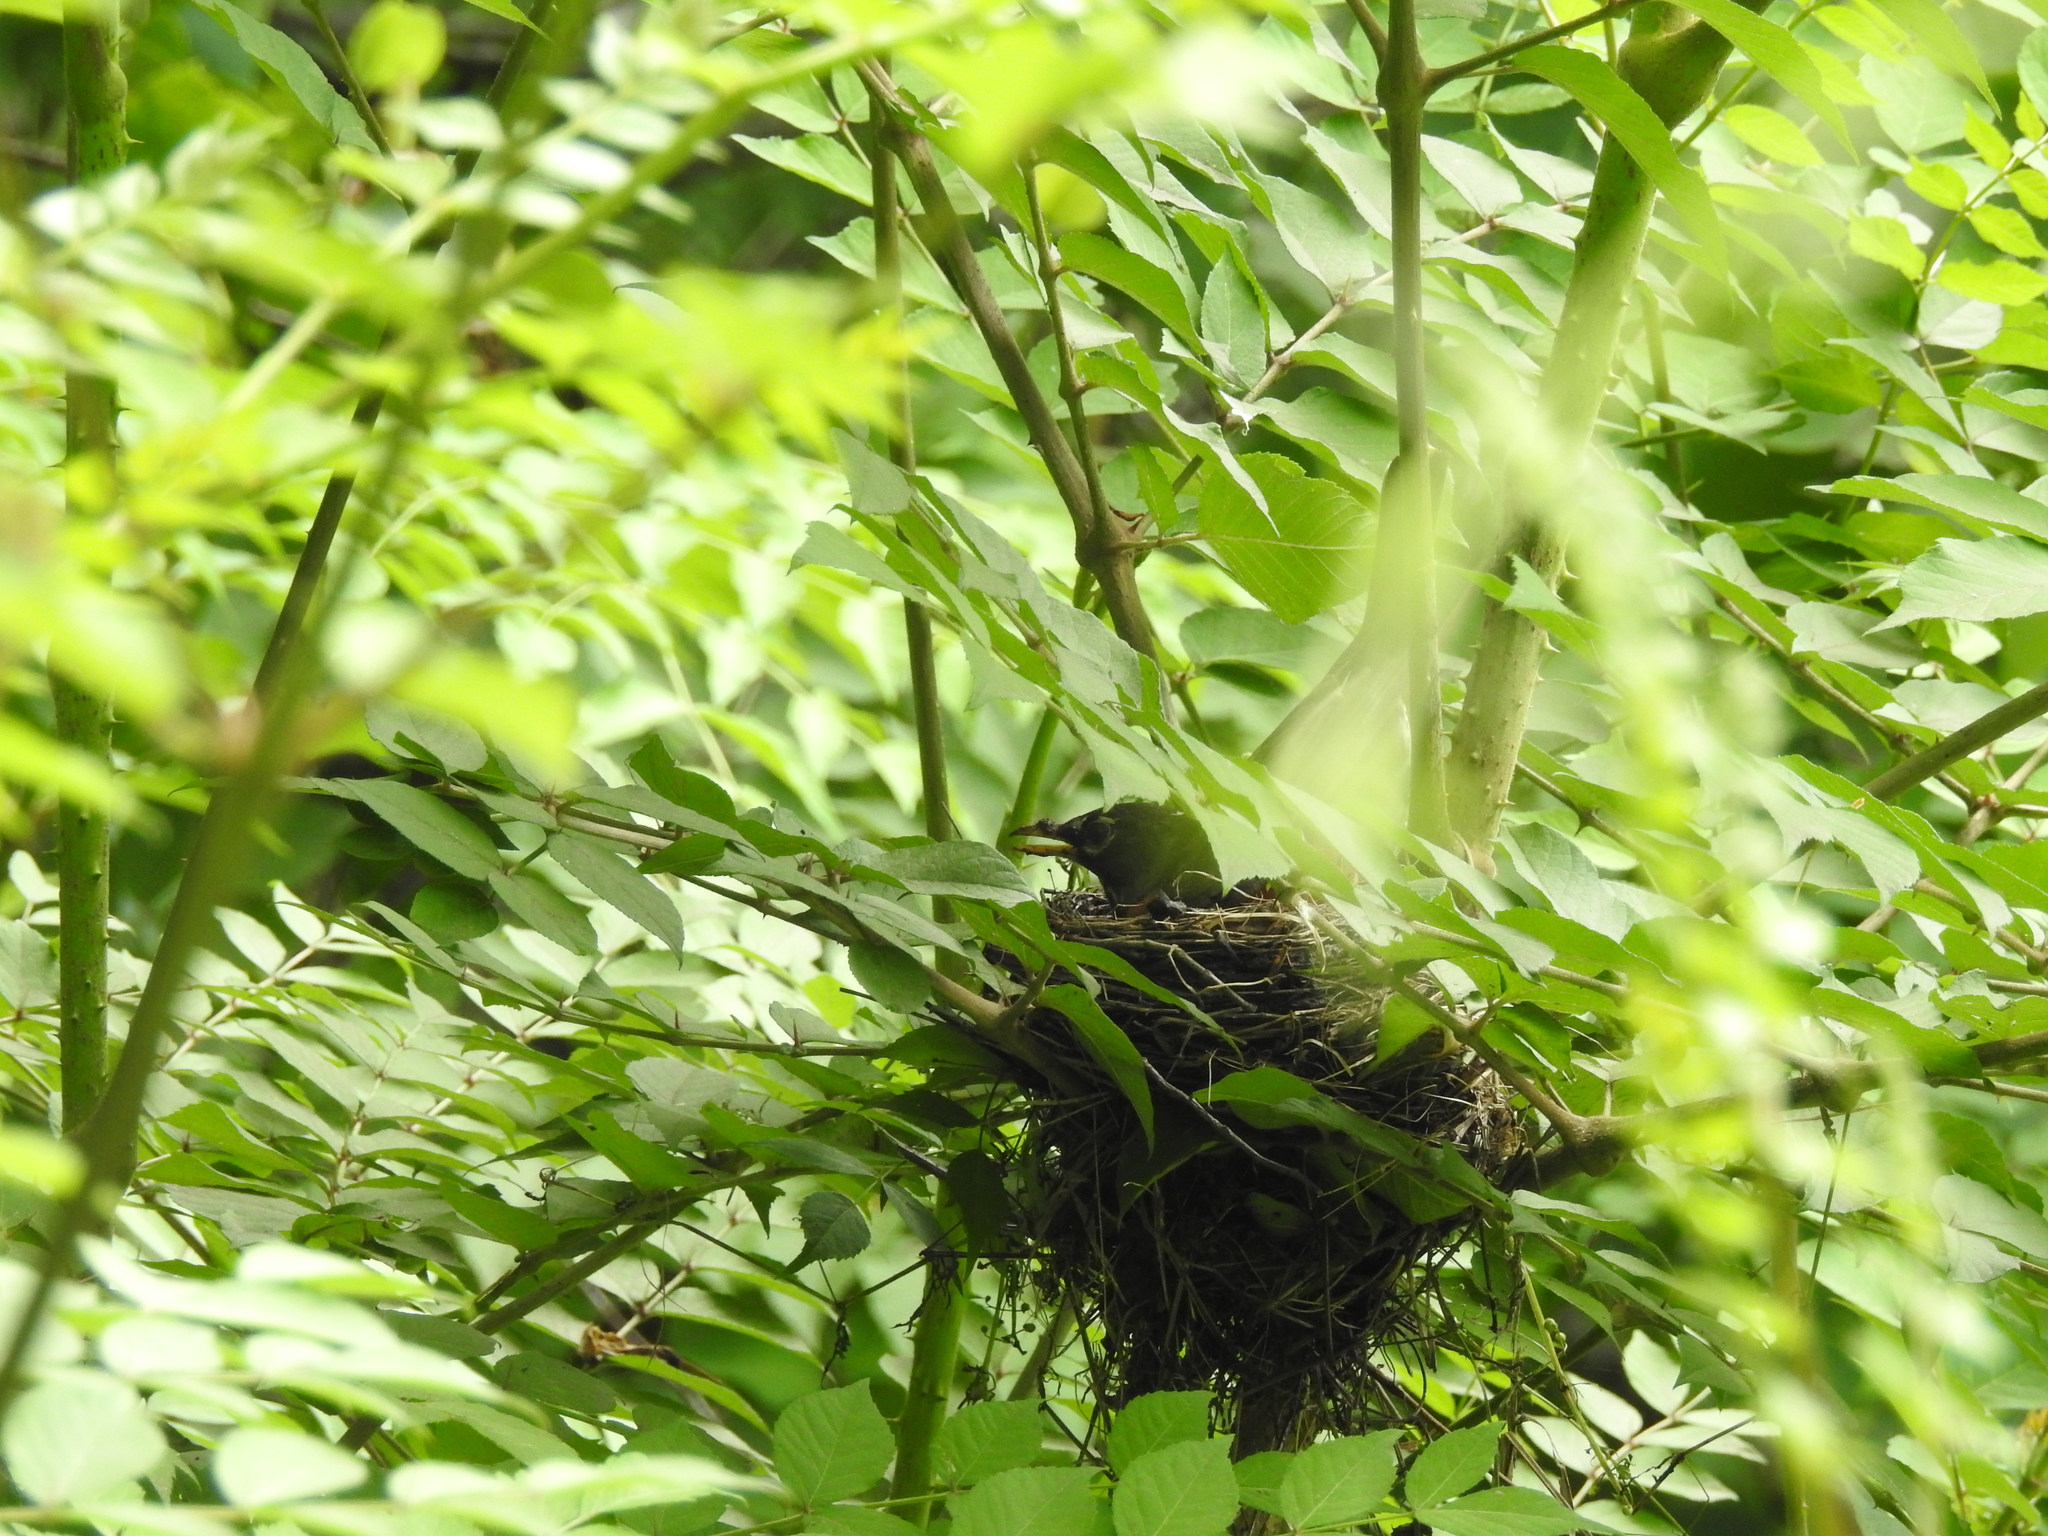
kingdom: Animalia
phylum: Chordata
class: Aves
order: Passeriformes
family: Turdidae
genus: Turdus
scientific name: Turdus migratorius
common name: American robin
